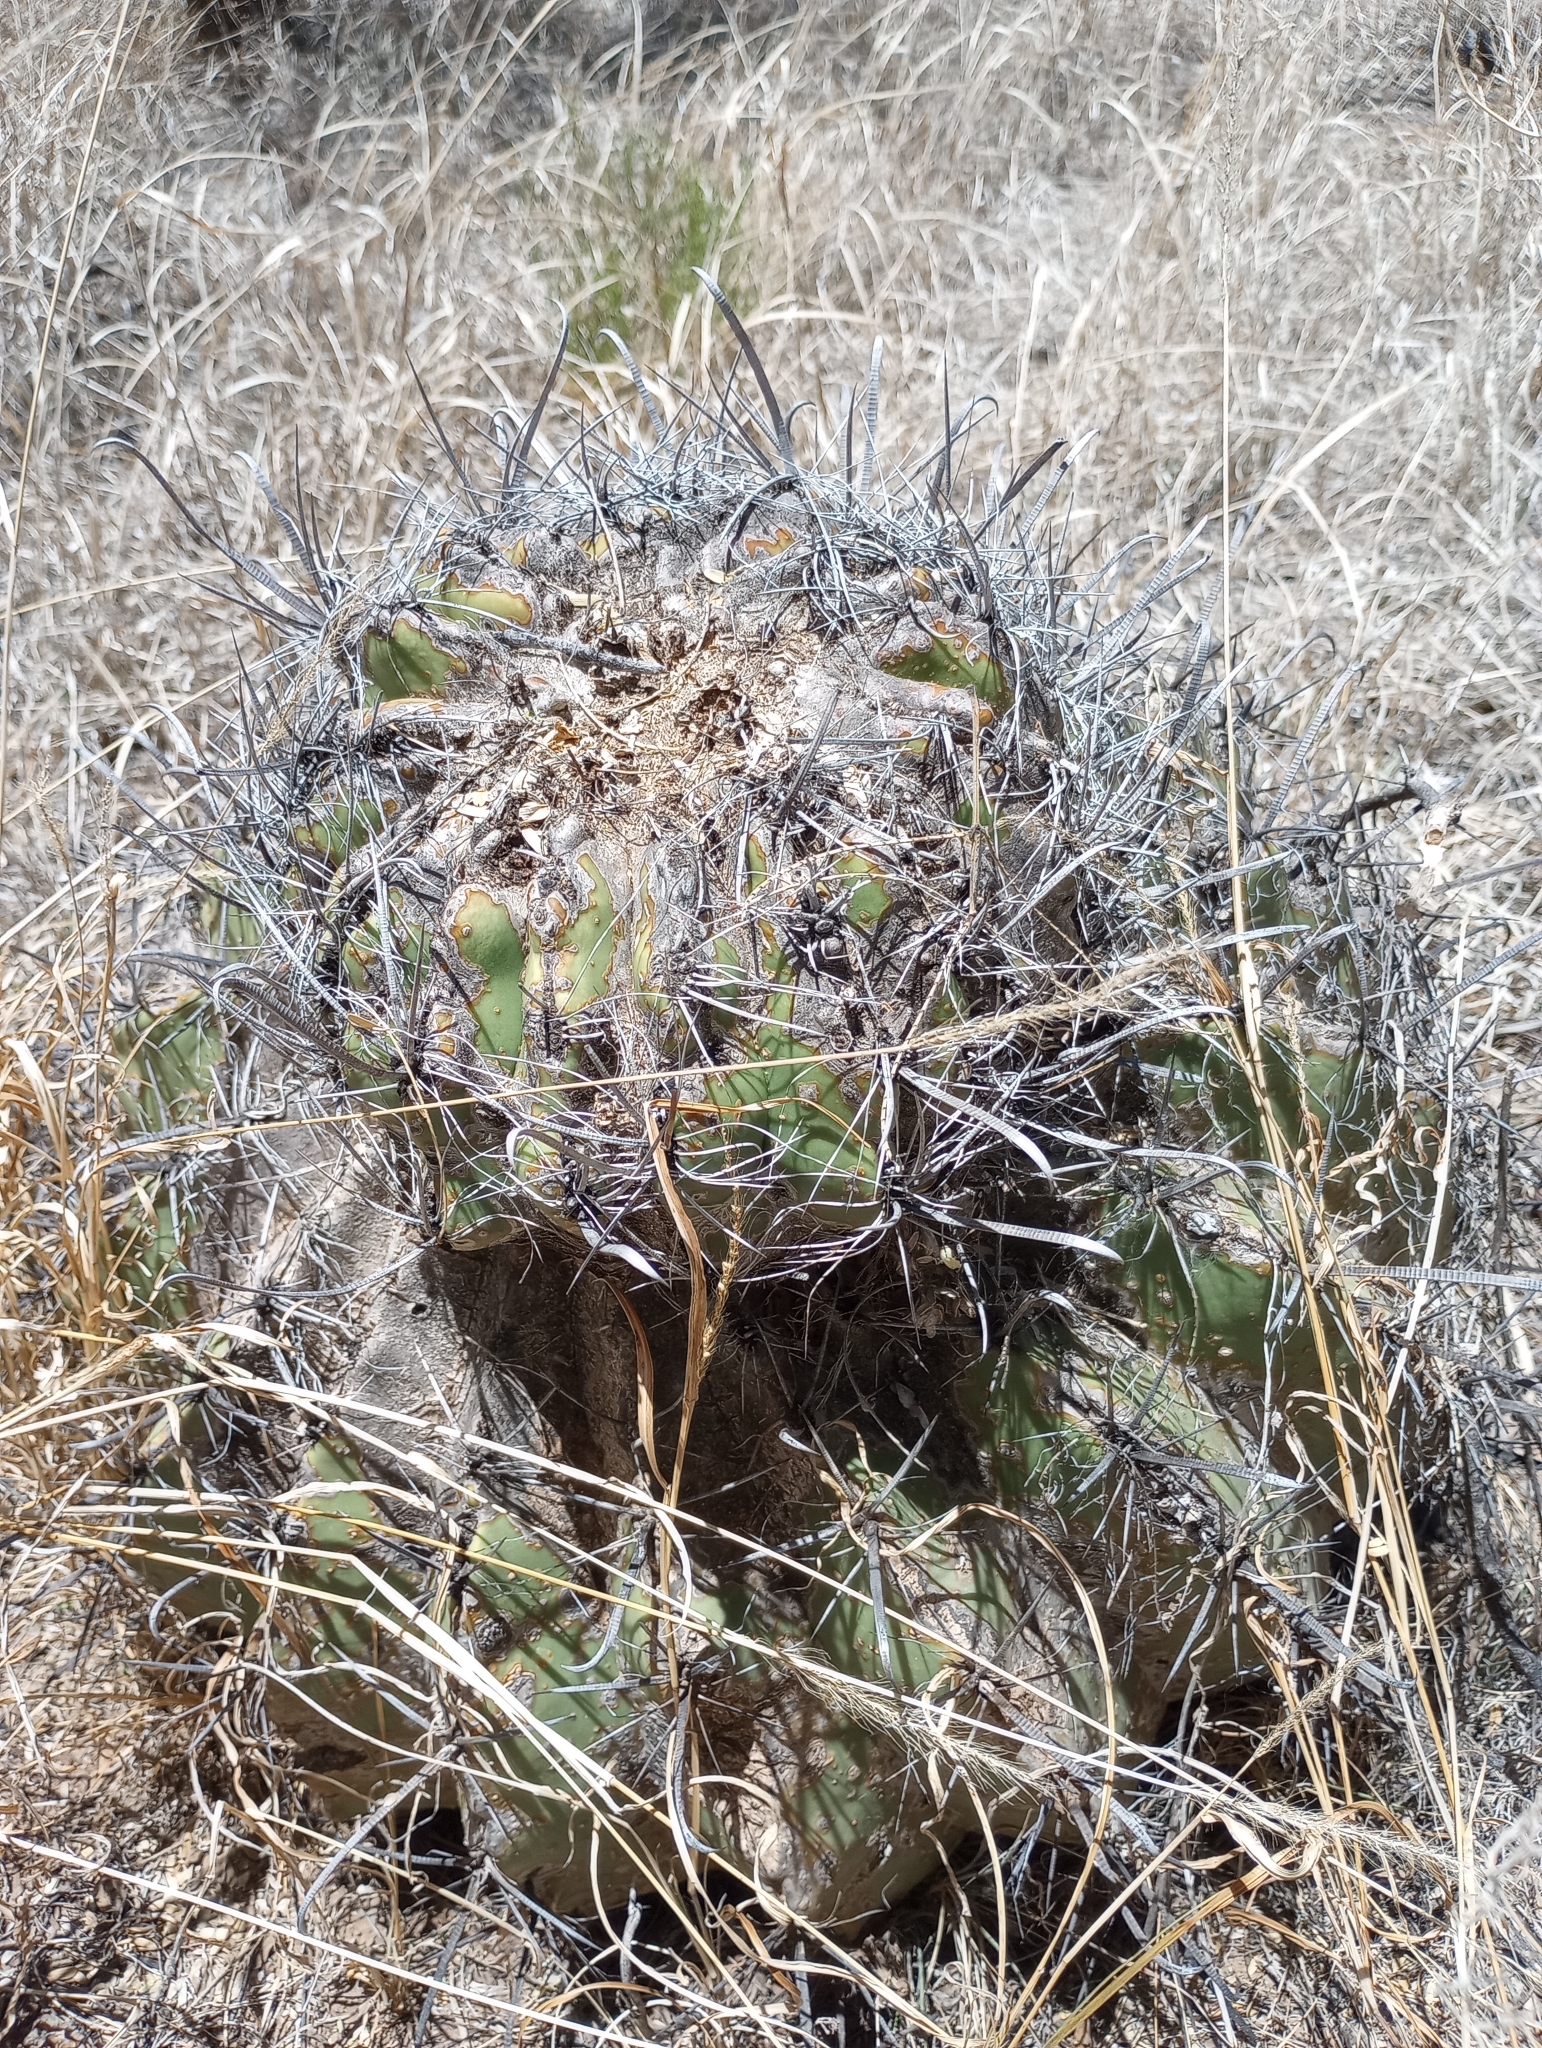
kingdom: Plantae
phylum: Tracheophyta
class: Magnoliopsida
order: Caryophyllales
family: Cactaceae
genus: Ferocactus
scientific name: Ferocactus wislizeni
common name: Candy barrel cactus
